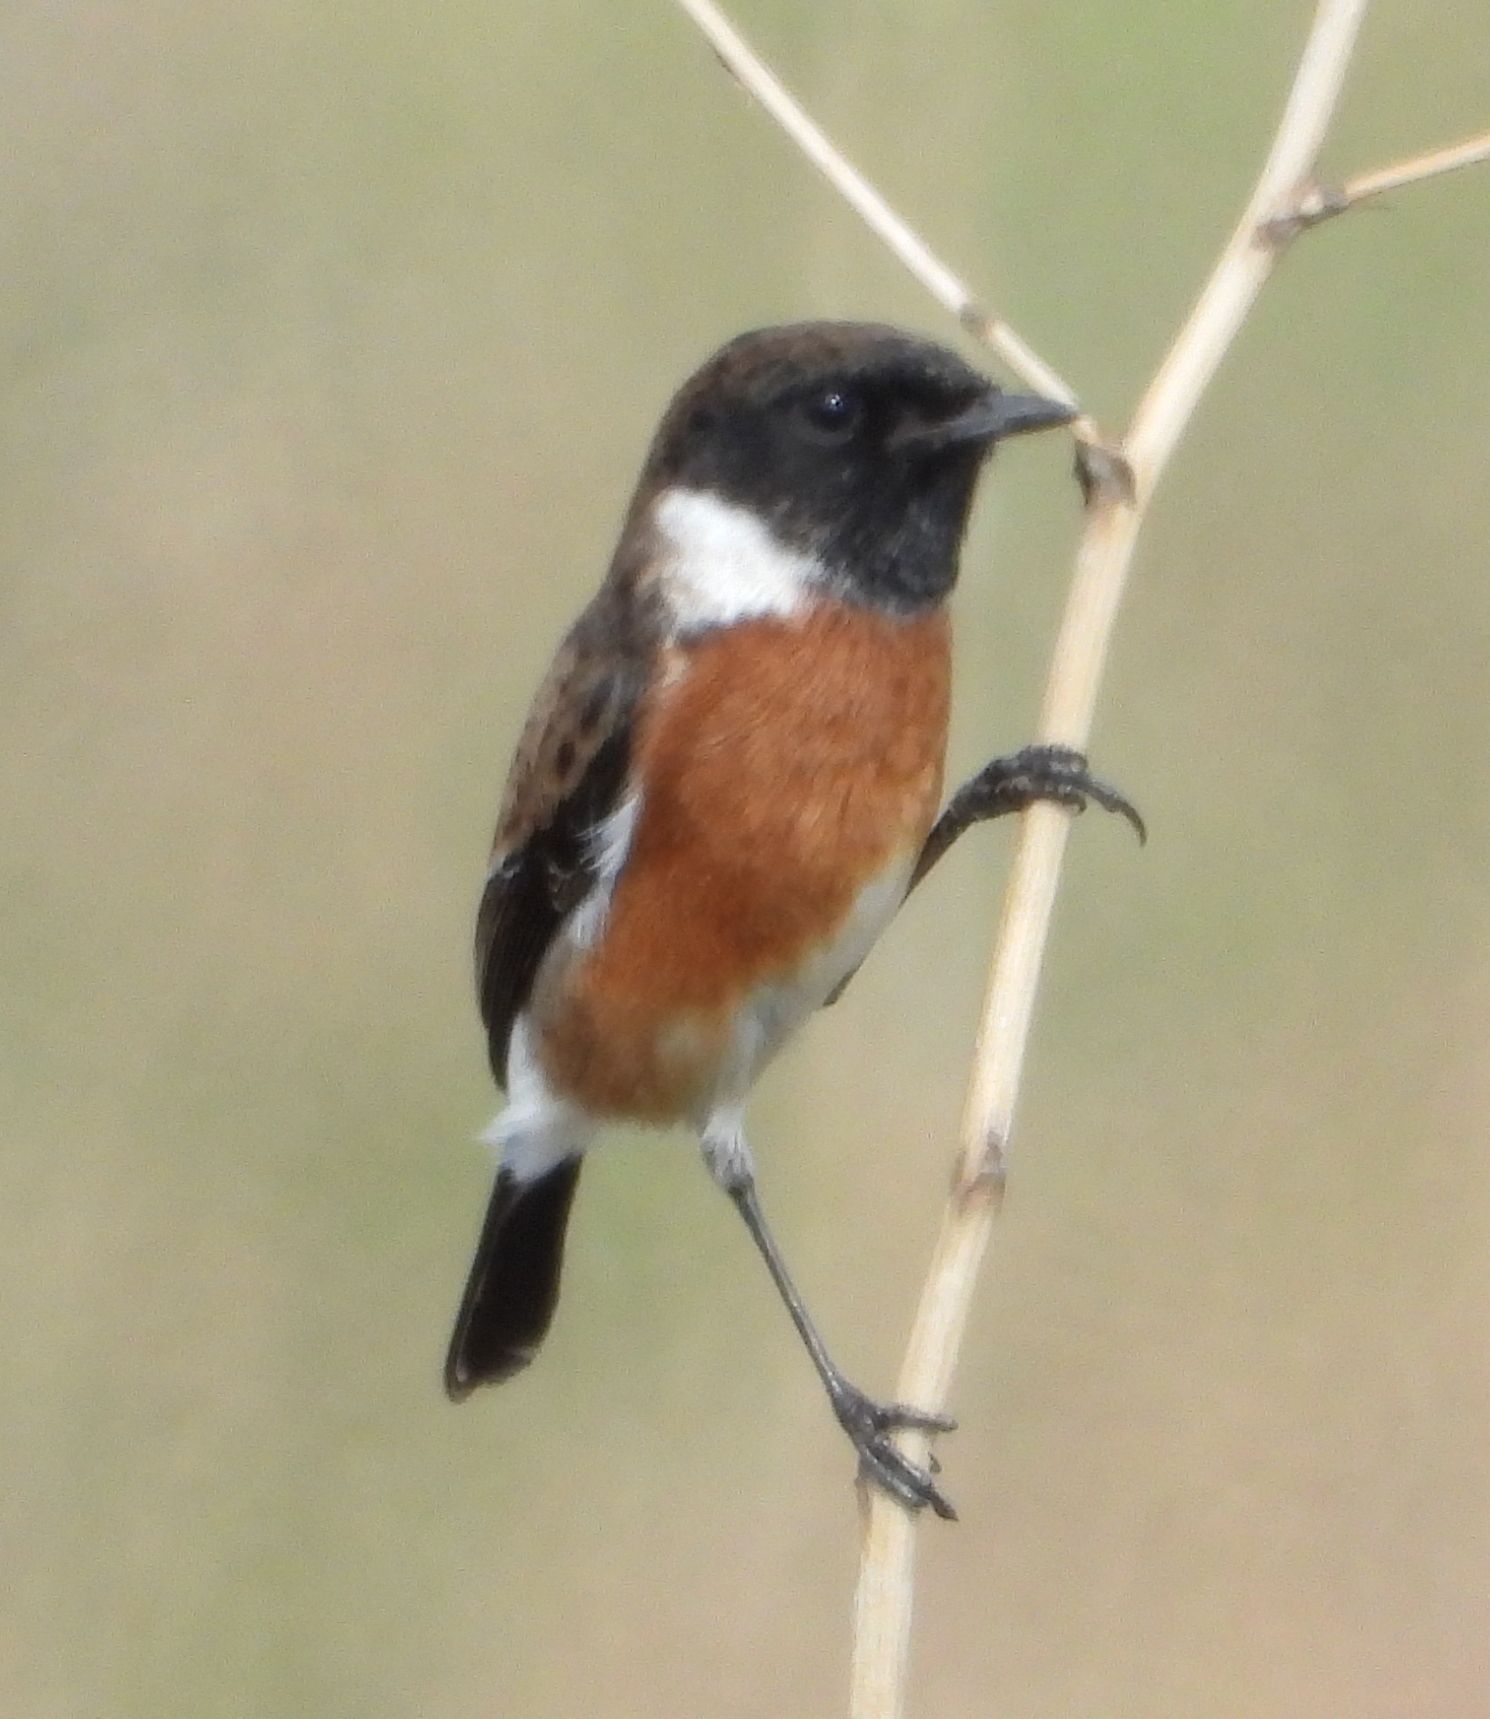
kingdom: Animalia
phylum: Chordata
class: Aves
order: Passeriformes
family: Muscicapidae
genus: Saxicola
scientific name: Saxicola torquatus
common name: African stonechat
